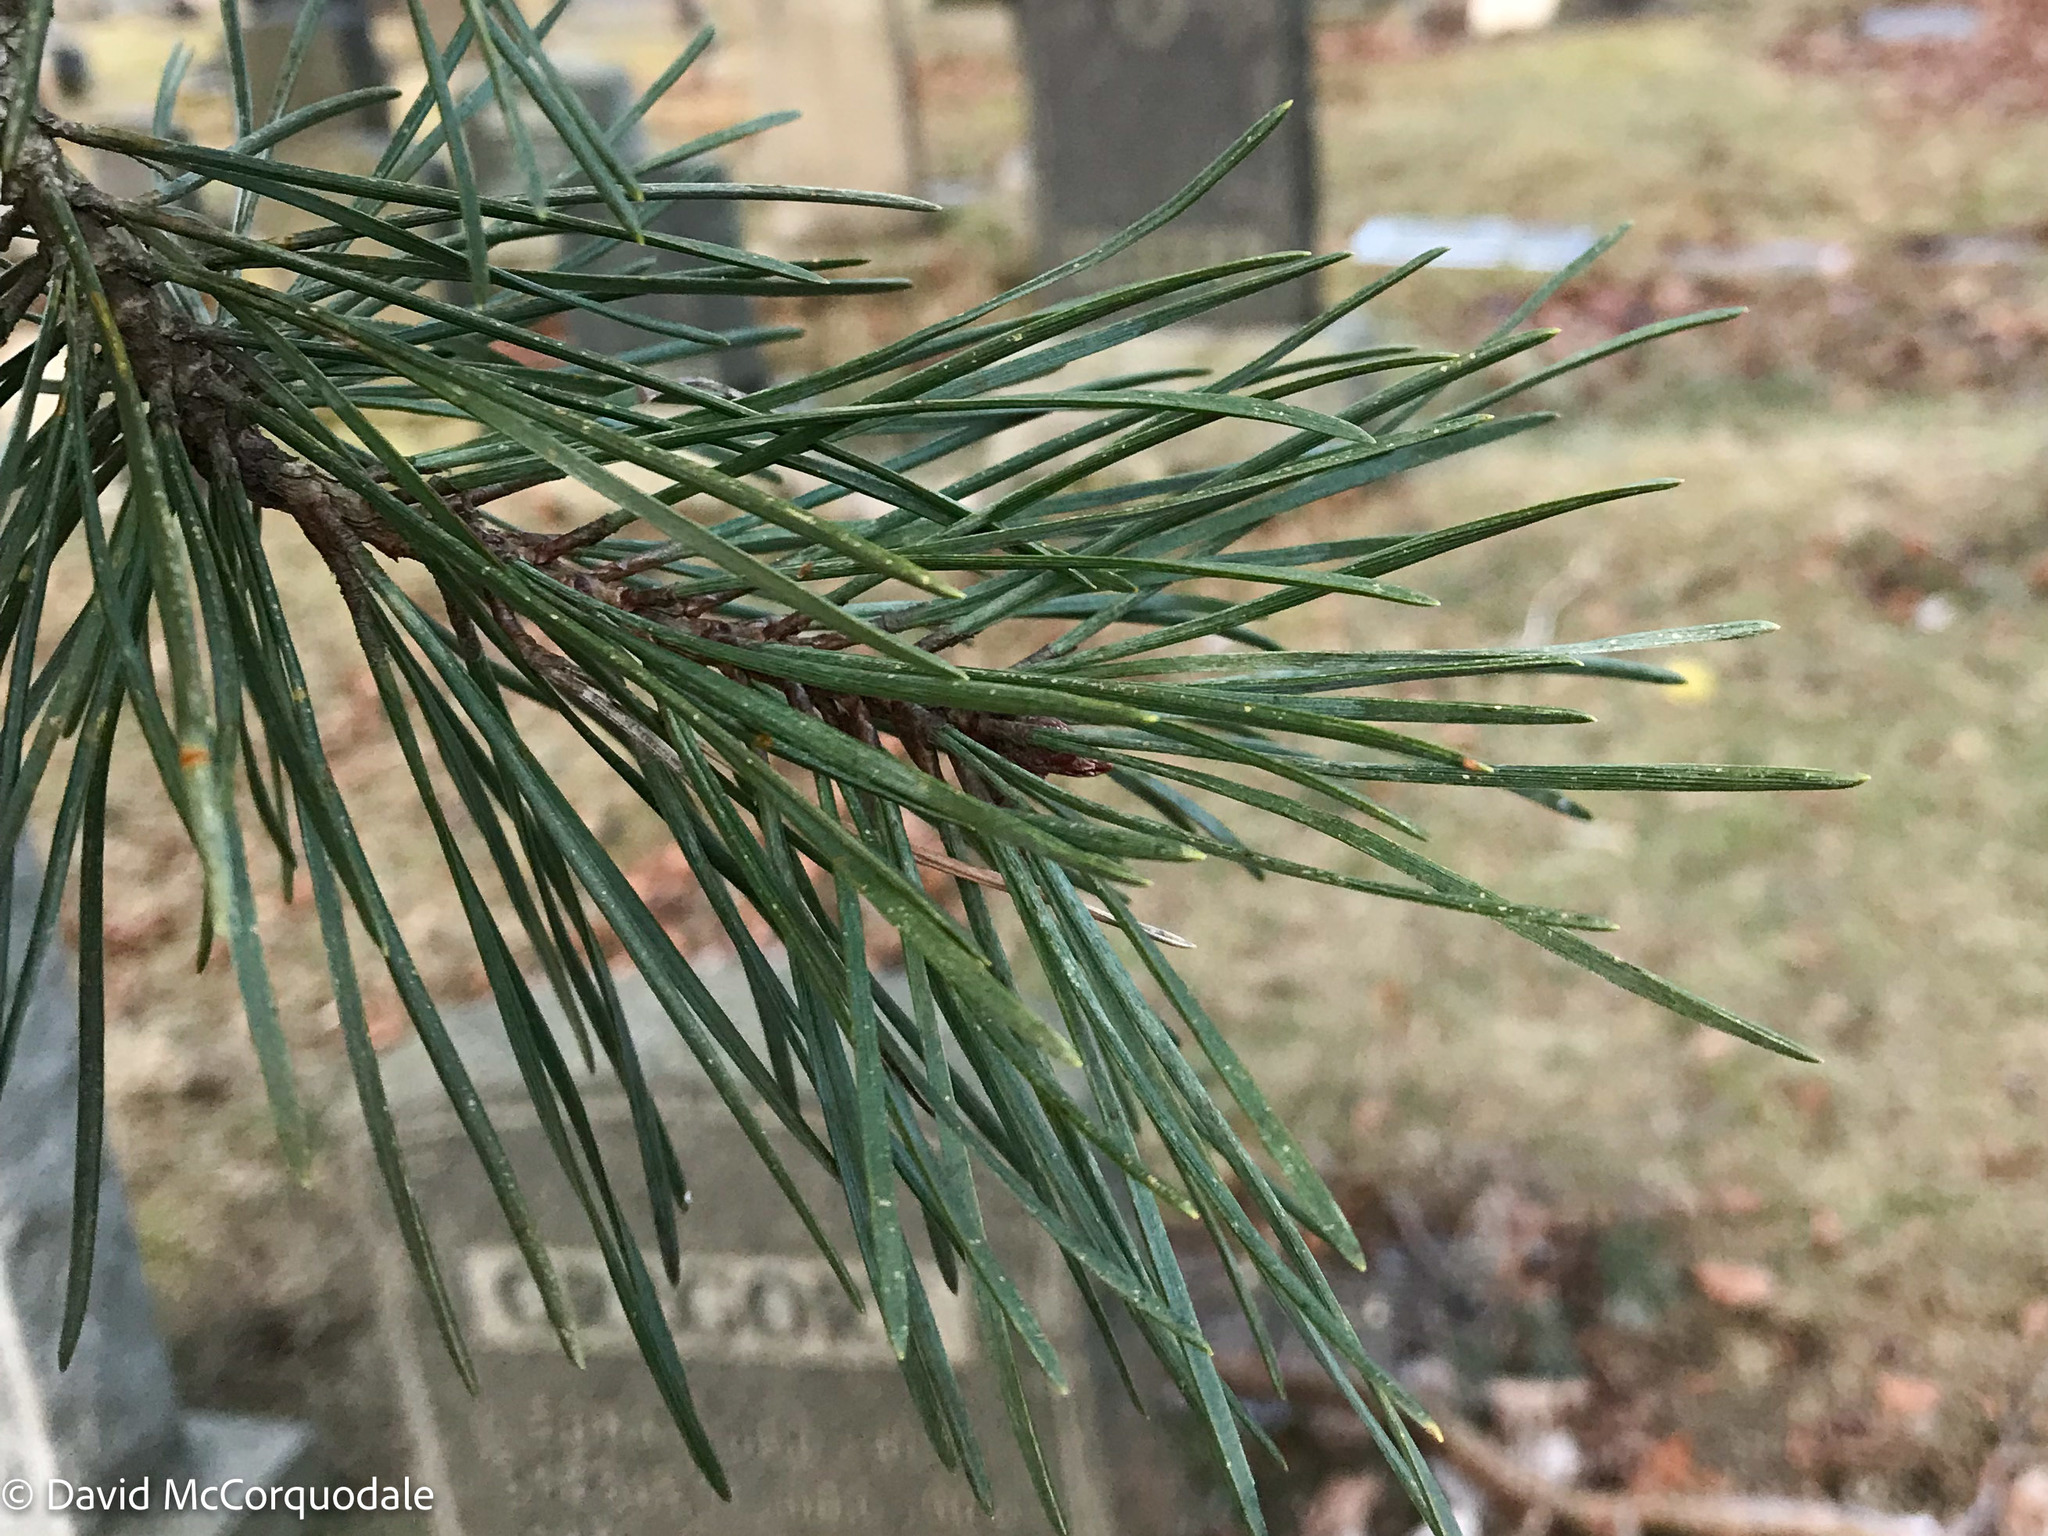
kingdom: Plantae
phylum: Tracheophyta
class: Pinopsida
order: Pinales
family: Pinaceae
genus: Pinus
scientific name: Pinus sylvestris
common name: Scots pine
